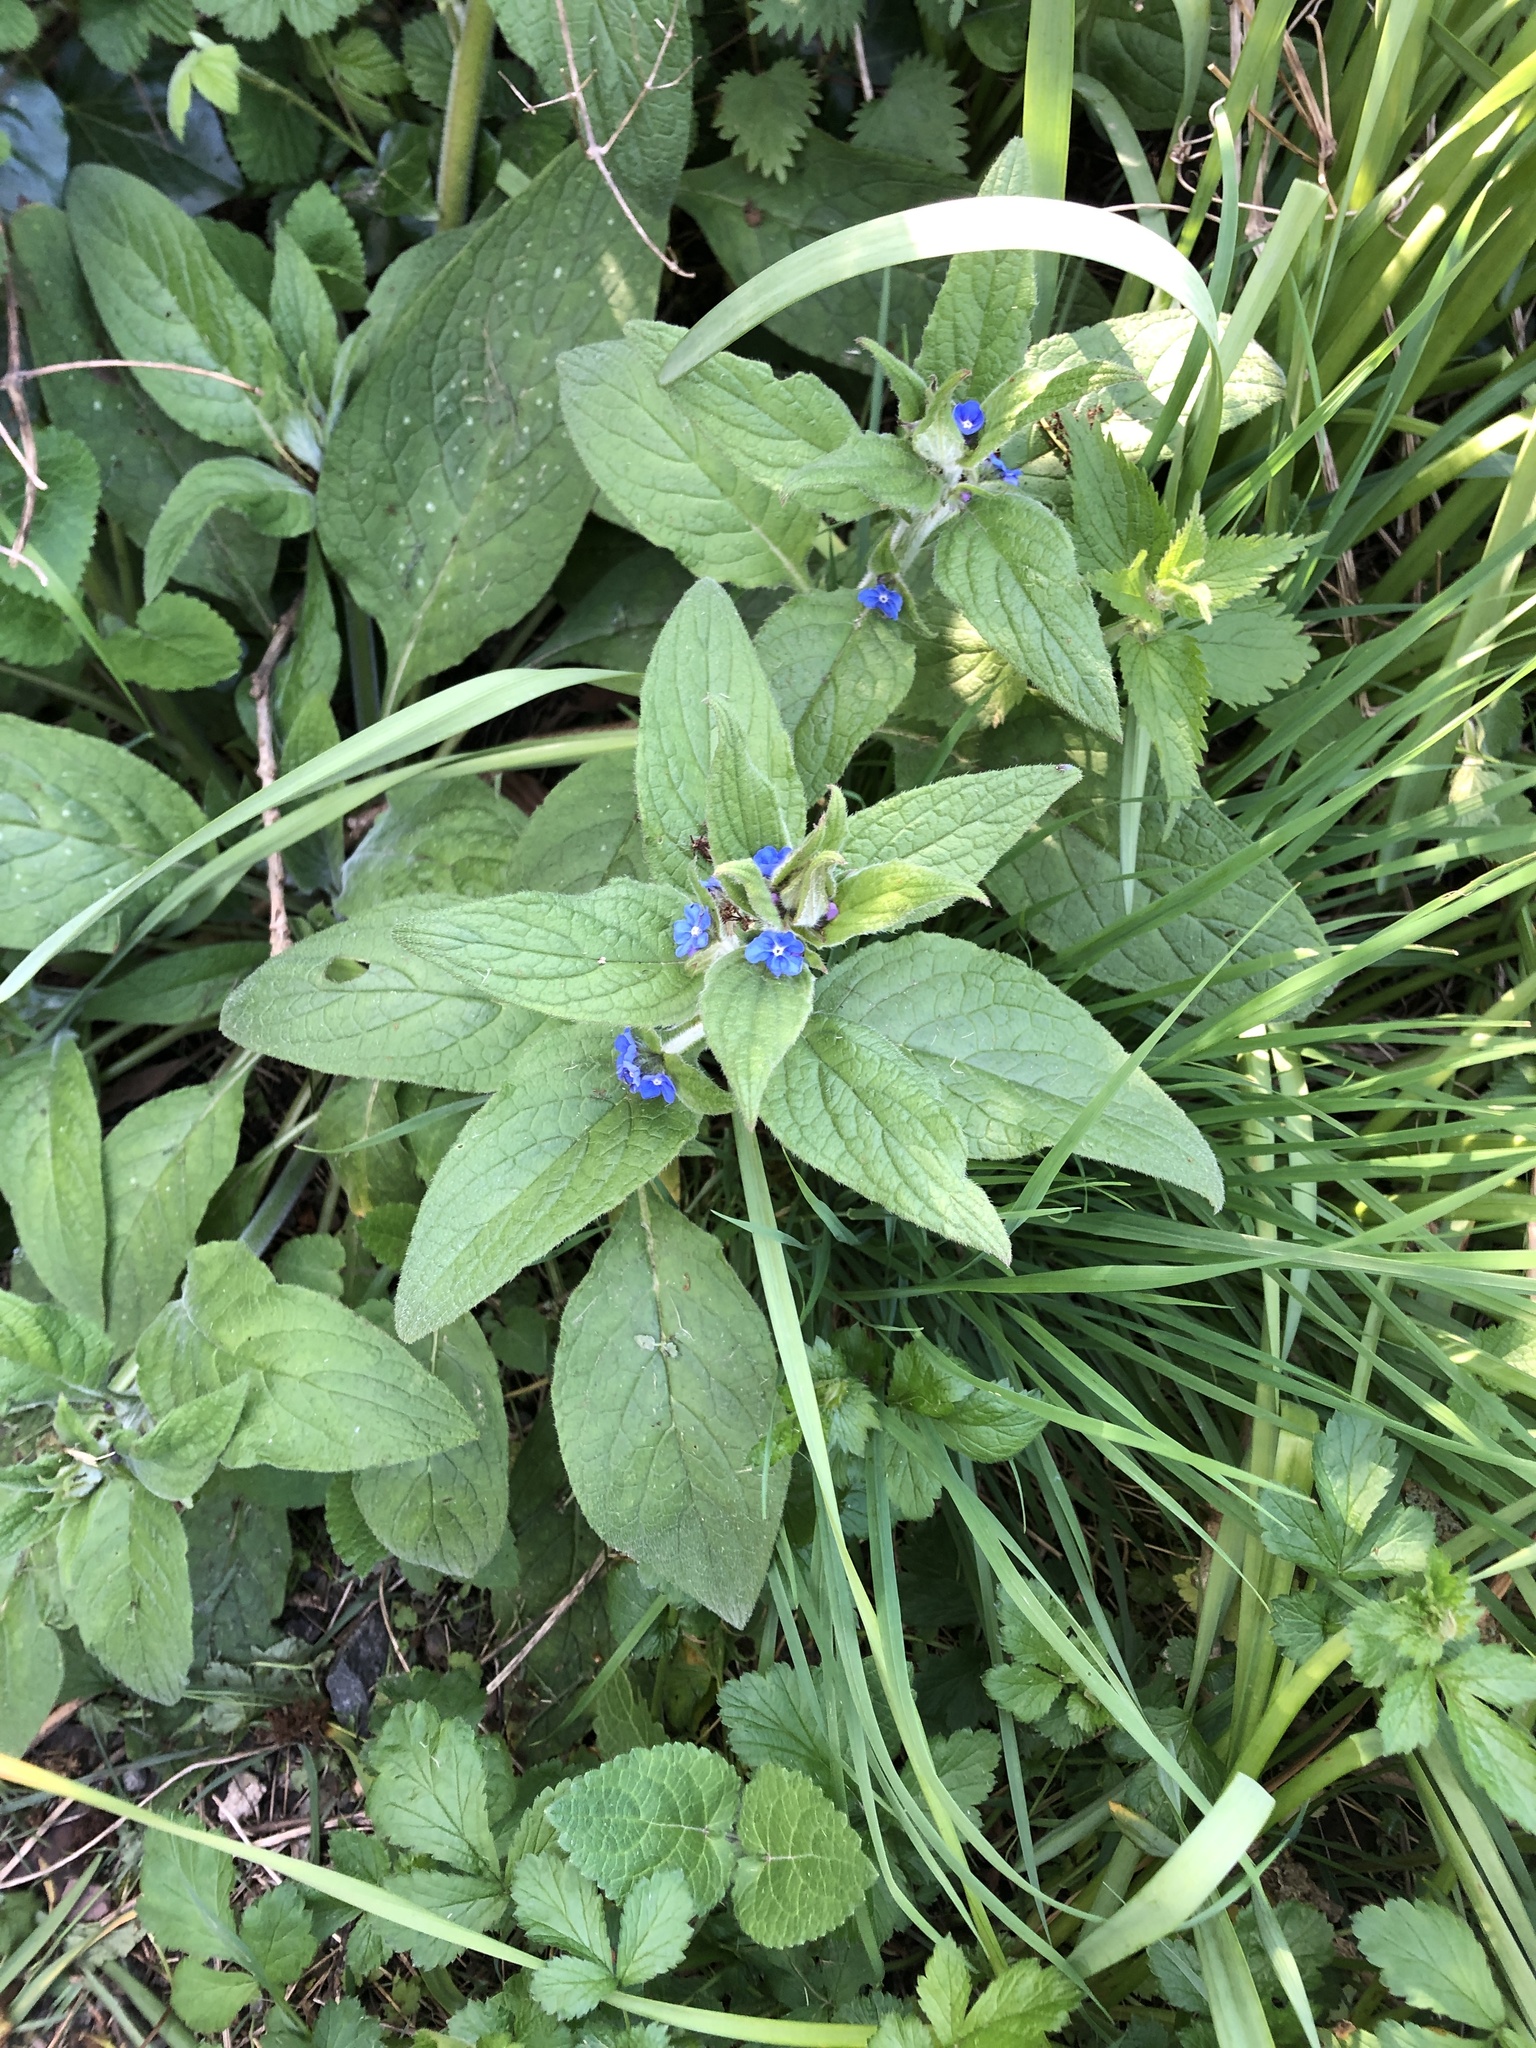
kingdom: Plantae
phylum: Tracheophyta
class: Magnoliopsida
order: Boraginales
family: Boraginaceae
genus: Pentaglottis
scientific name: Pentaglottis sempervirens
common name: Green alkanet
